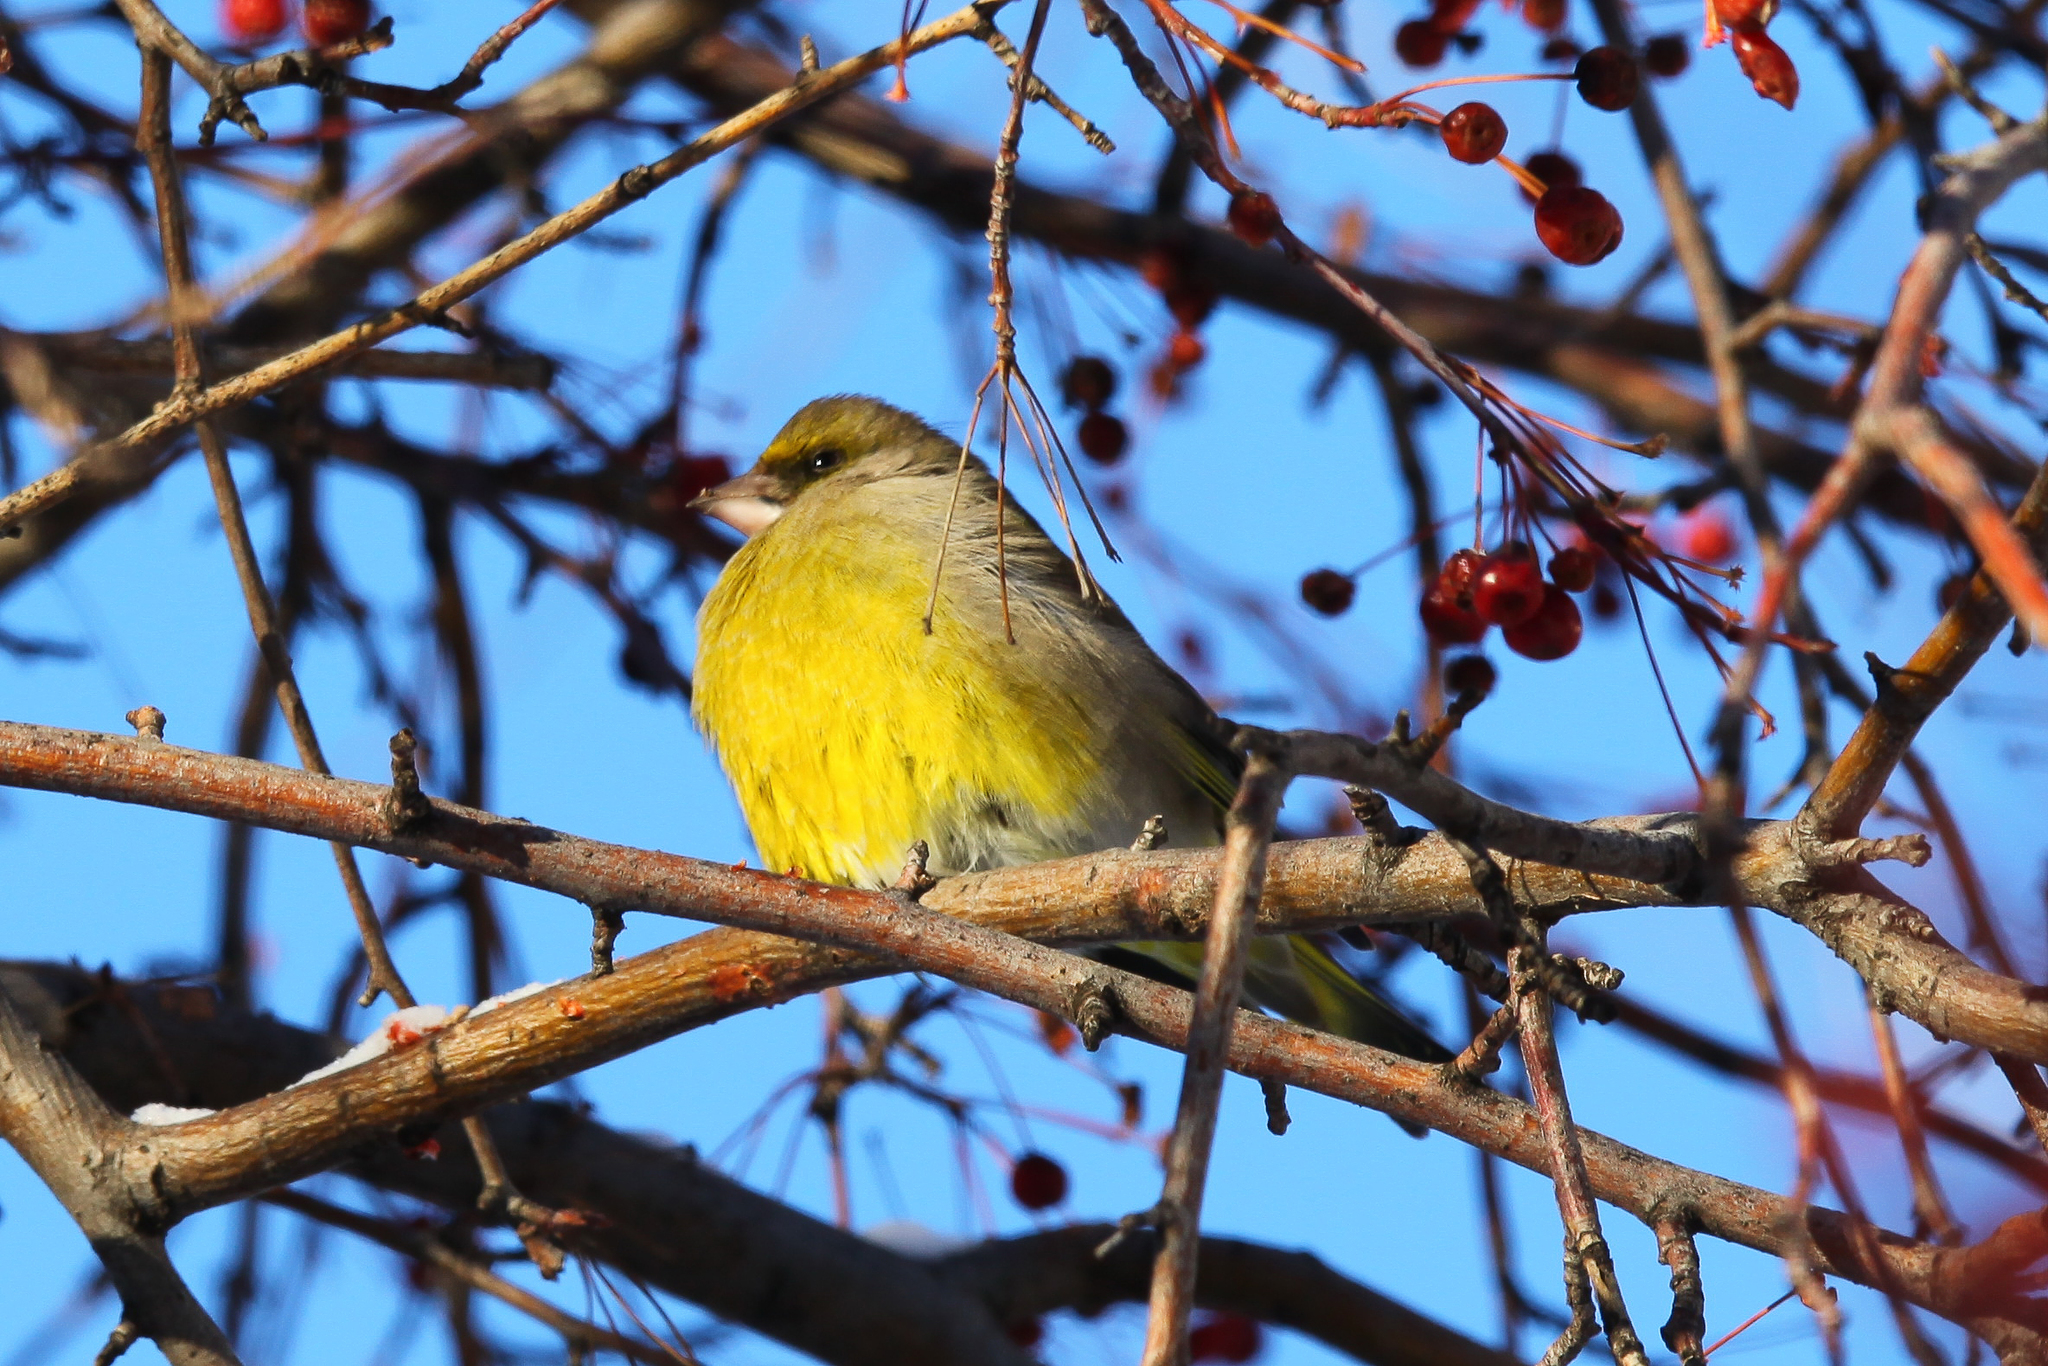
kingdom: Plantae
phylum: Tracheophyta
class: Liliopsida
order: Poales
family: Poaceae
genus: Chloris
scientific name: Chloris chloris
